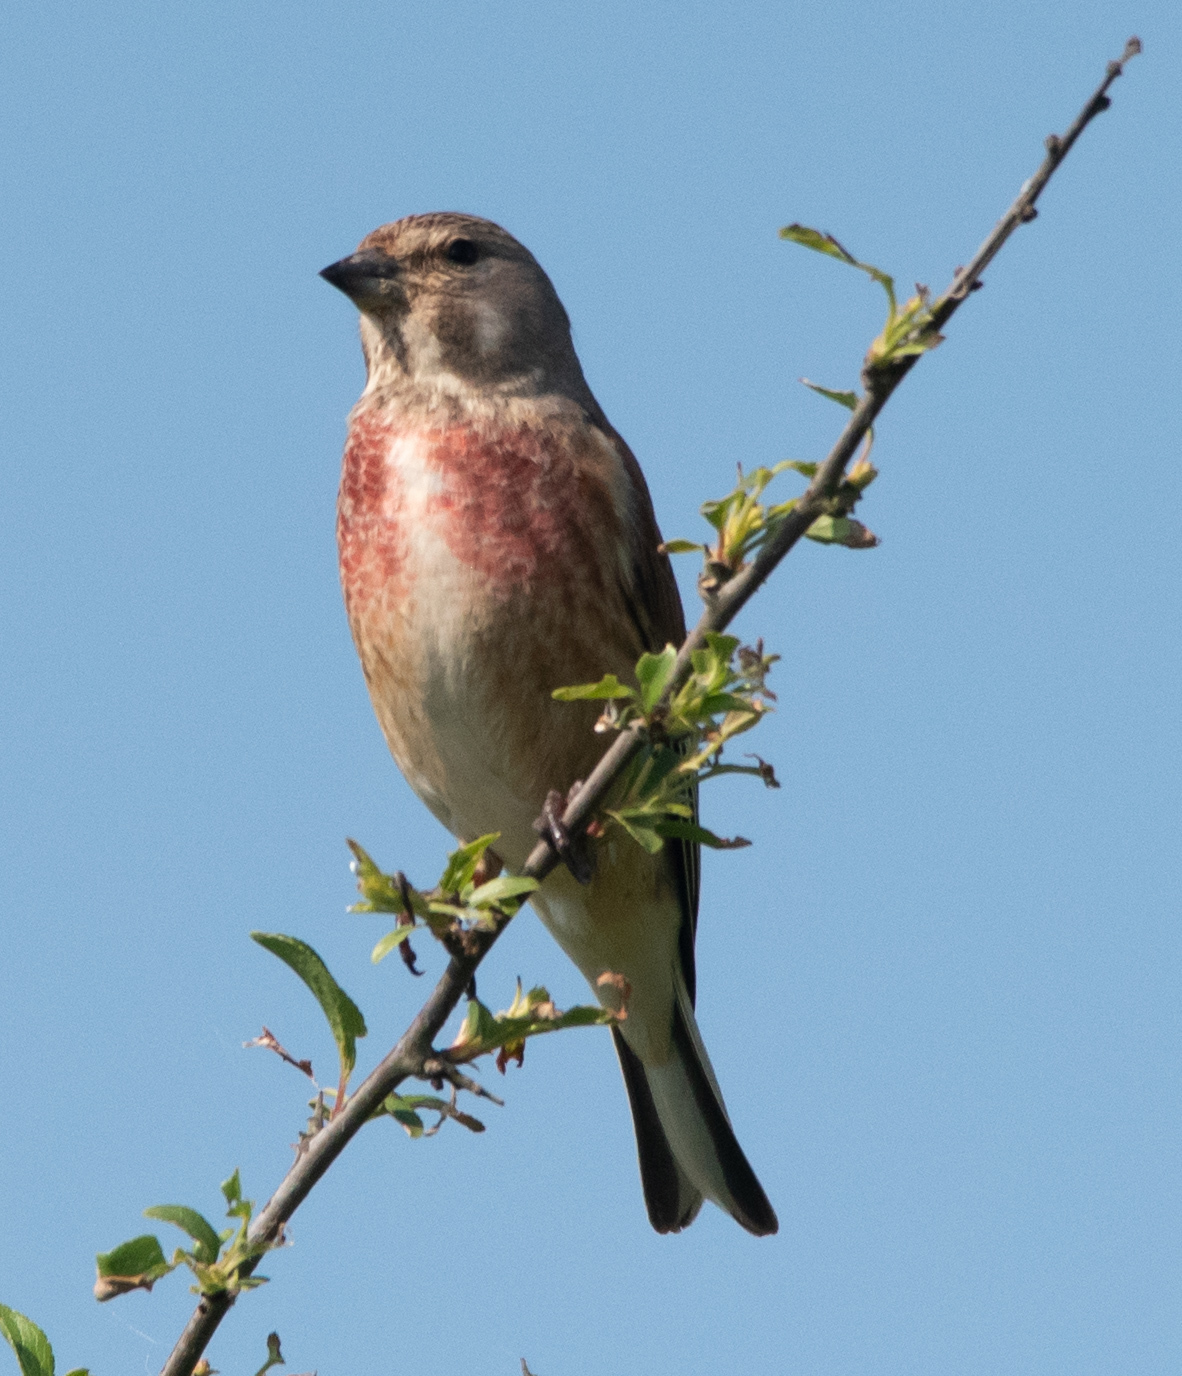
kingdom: Animalia
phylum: Chordata
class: Aves
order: Passeriformes
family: Fringillidae
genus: Linaria
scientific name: Linaria cannabina
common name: Common linnet
